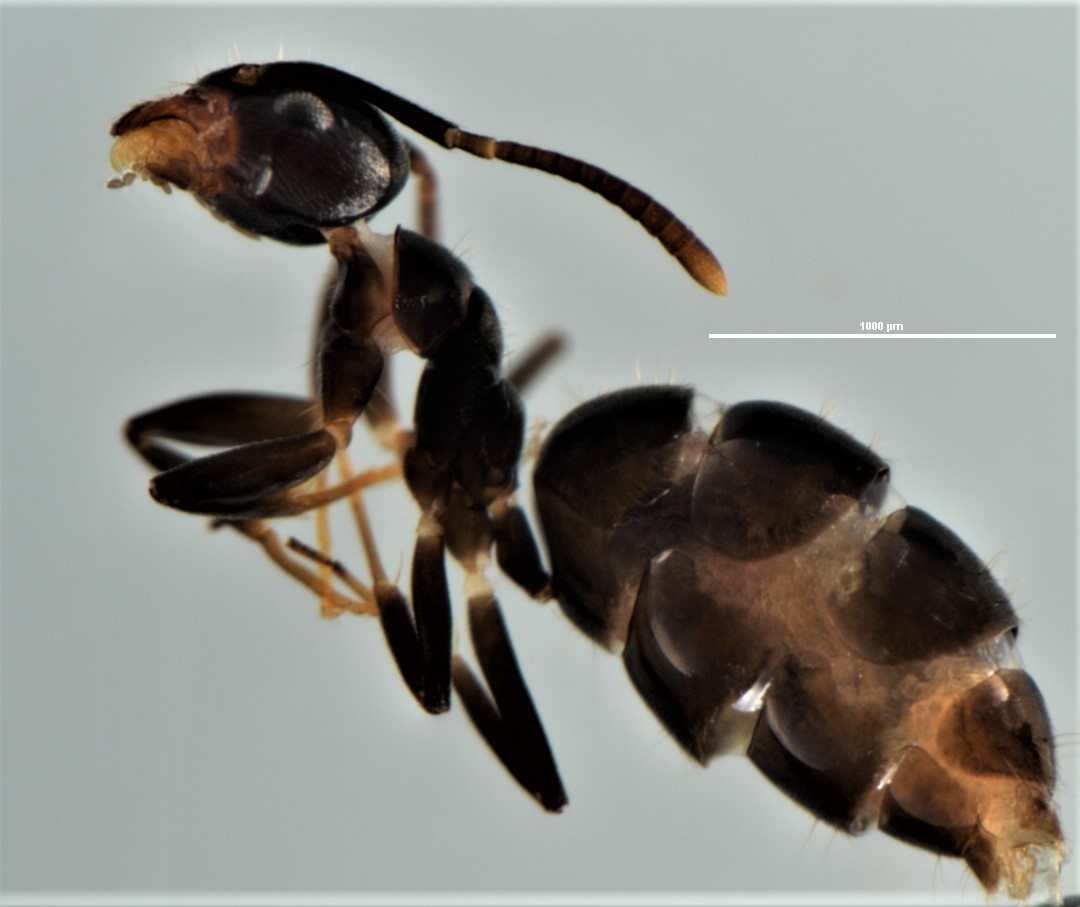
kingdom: Animalia
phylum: Arthropoda
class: Insecta
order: Hymenoptera
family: Formicidae
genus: Technomyrmex
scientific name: Technomyrmex jocosus
